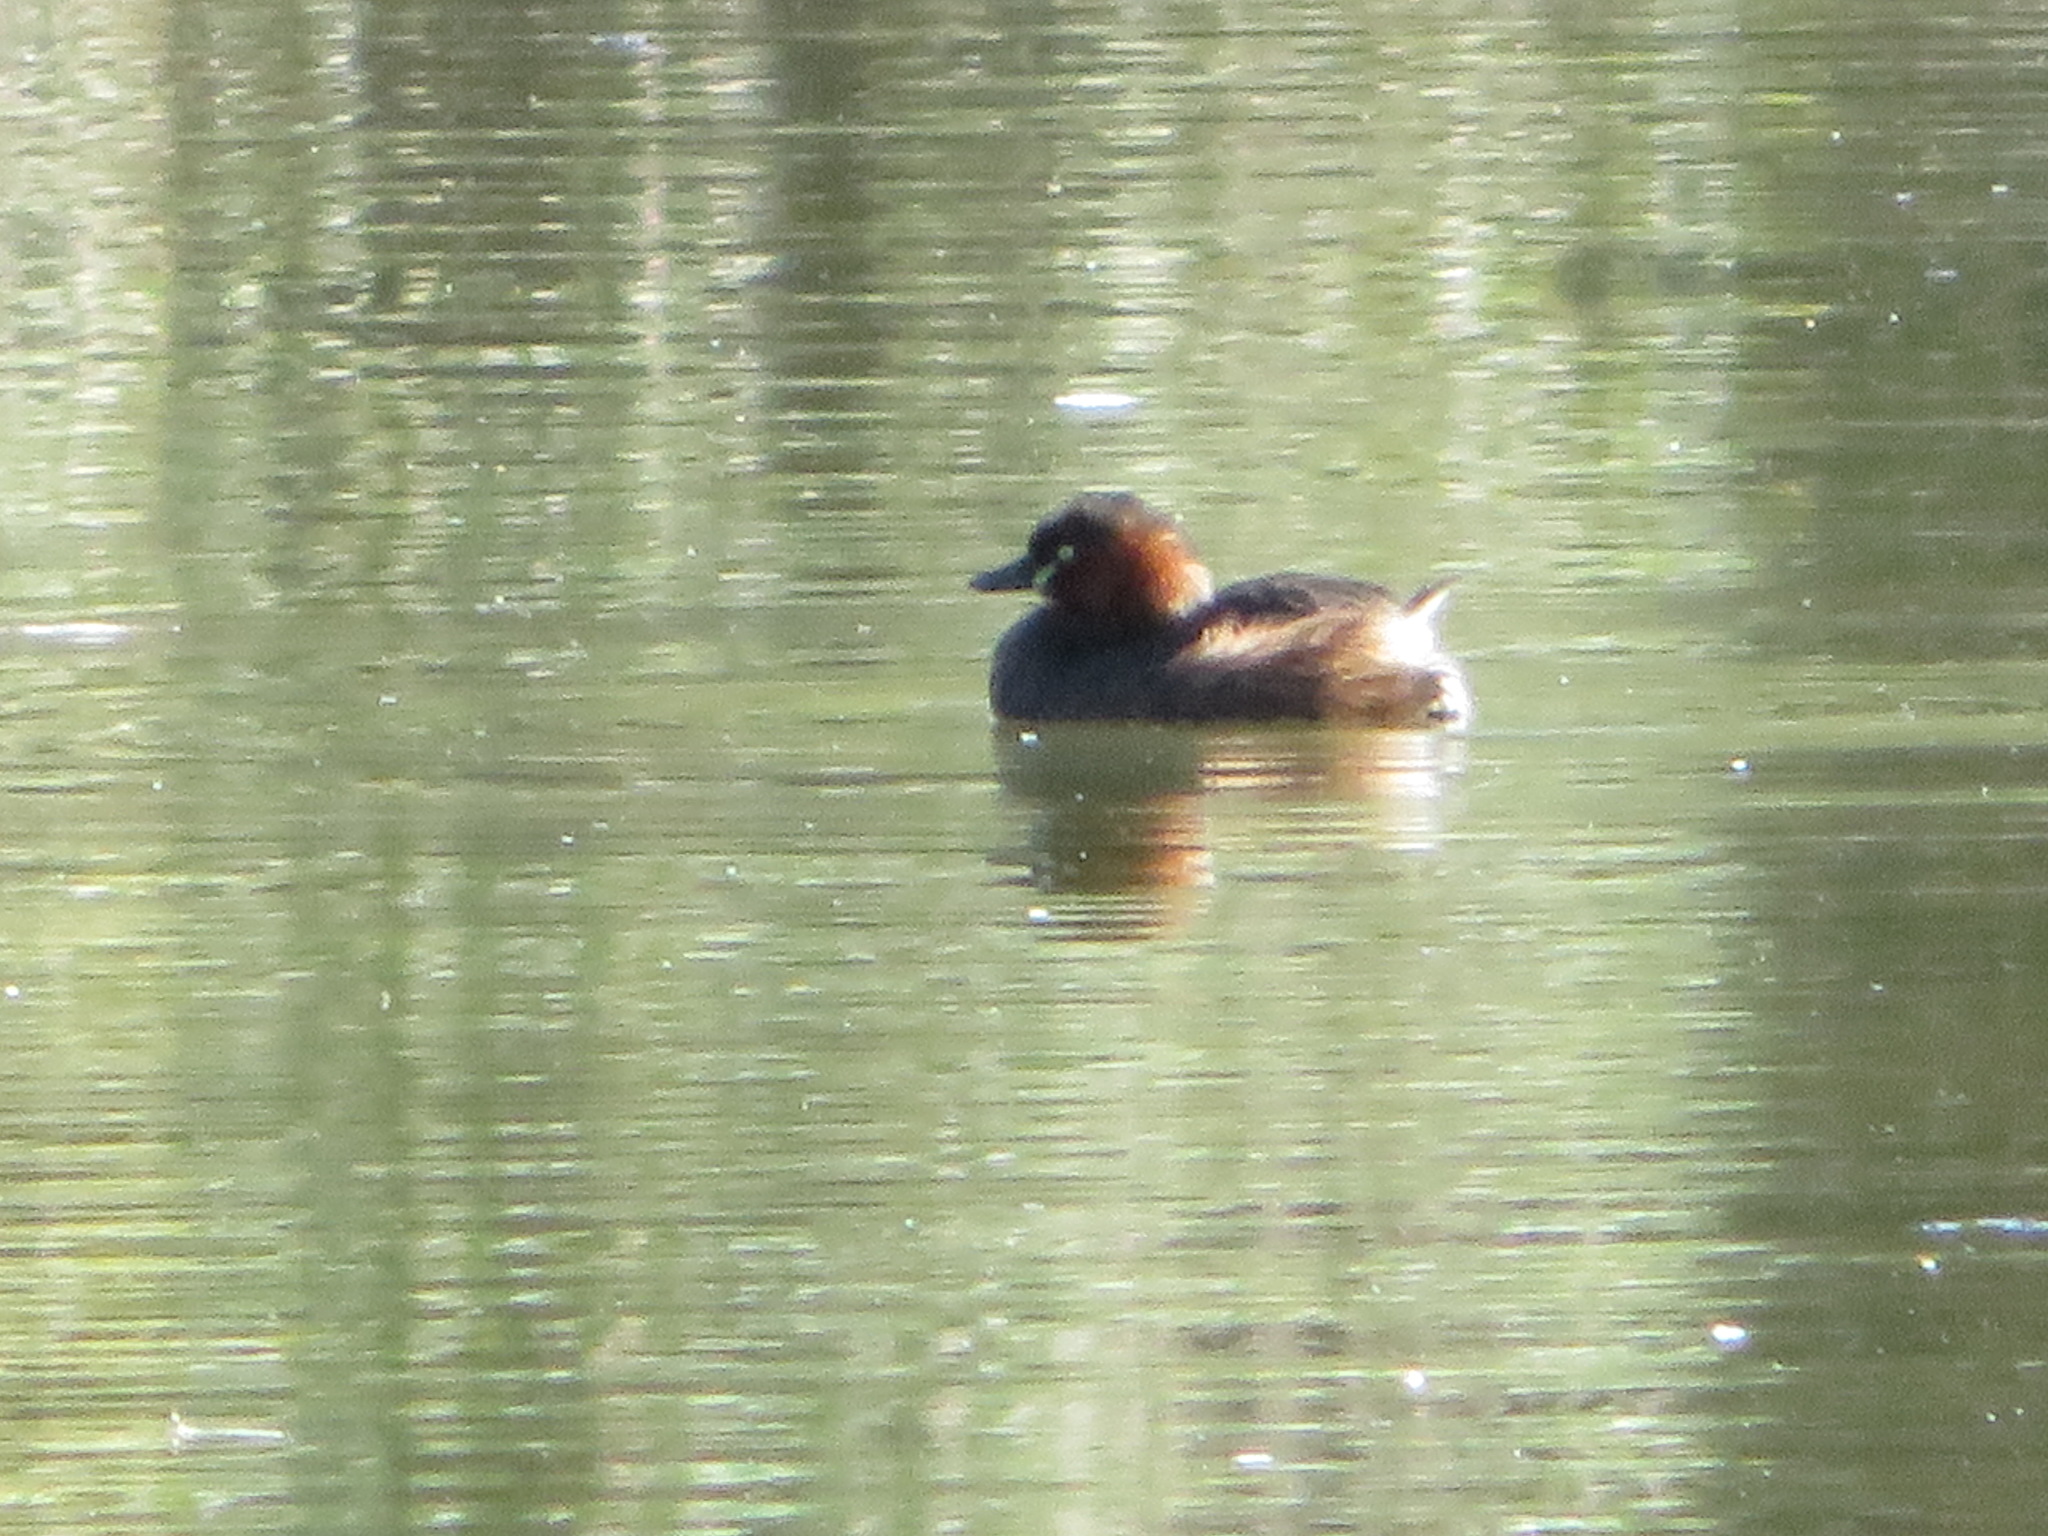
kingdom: Animalia
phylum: Chordata
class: Aves
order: Podicipediformes
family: Podicipedidae
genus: Tachybaptus
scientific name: Tachybaptus ruficollis
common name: Little grebe
